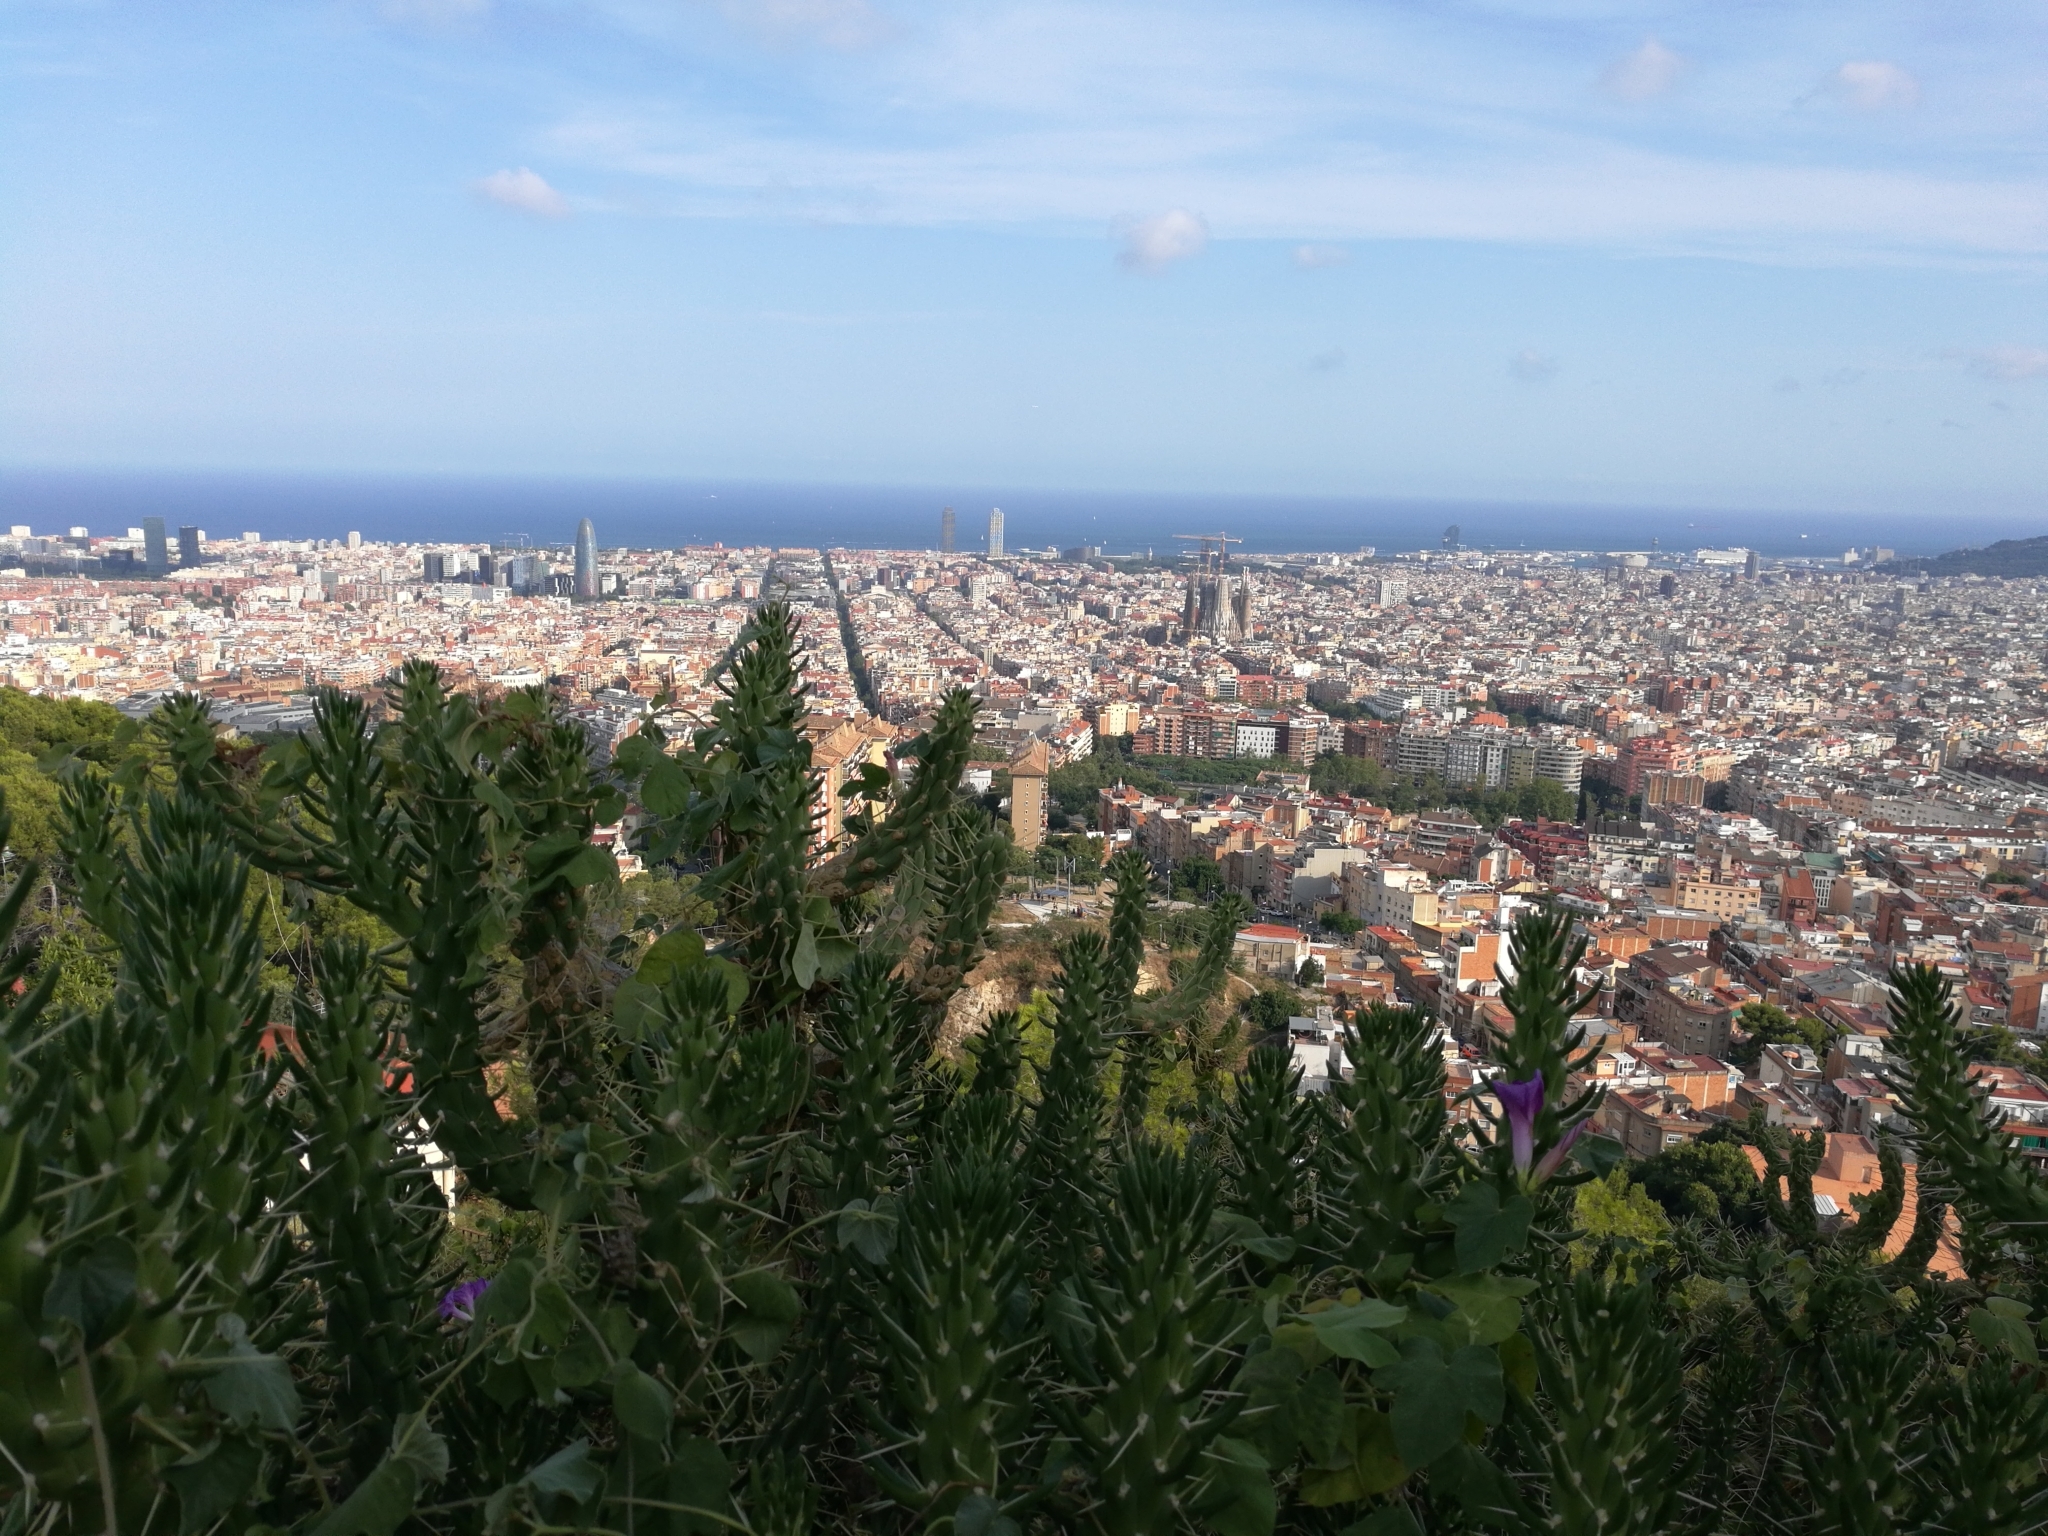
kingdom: Plantae
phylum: Tracheophyta
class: Magnoliopsida
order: Caryophyllales
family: Cactaceae
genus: Austrocylindropuntia
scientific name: Austrocylindropuntia subulata
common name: Eve's needle cactus
